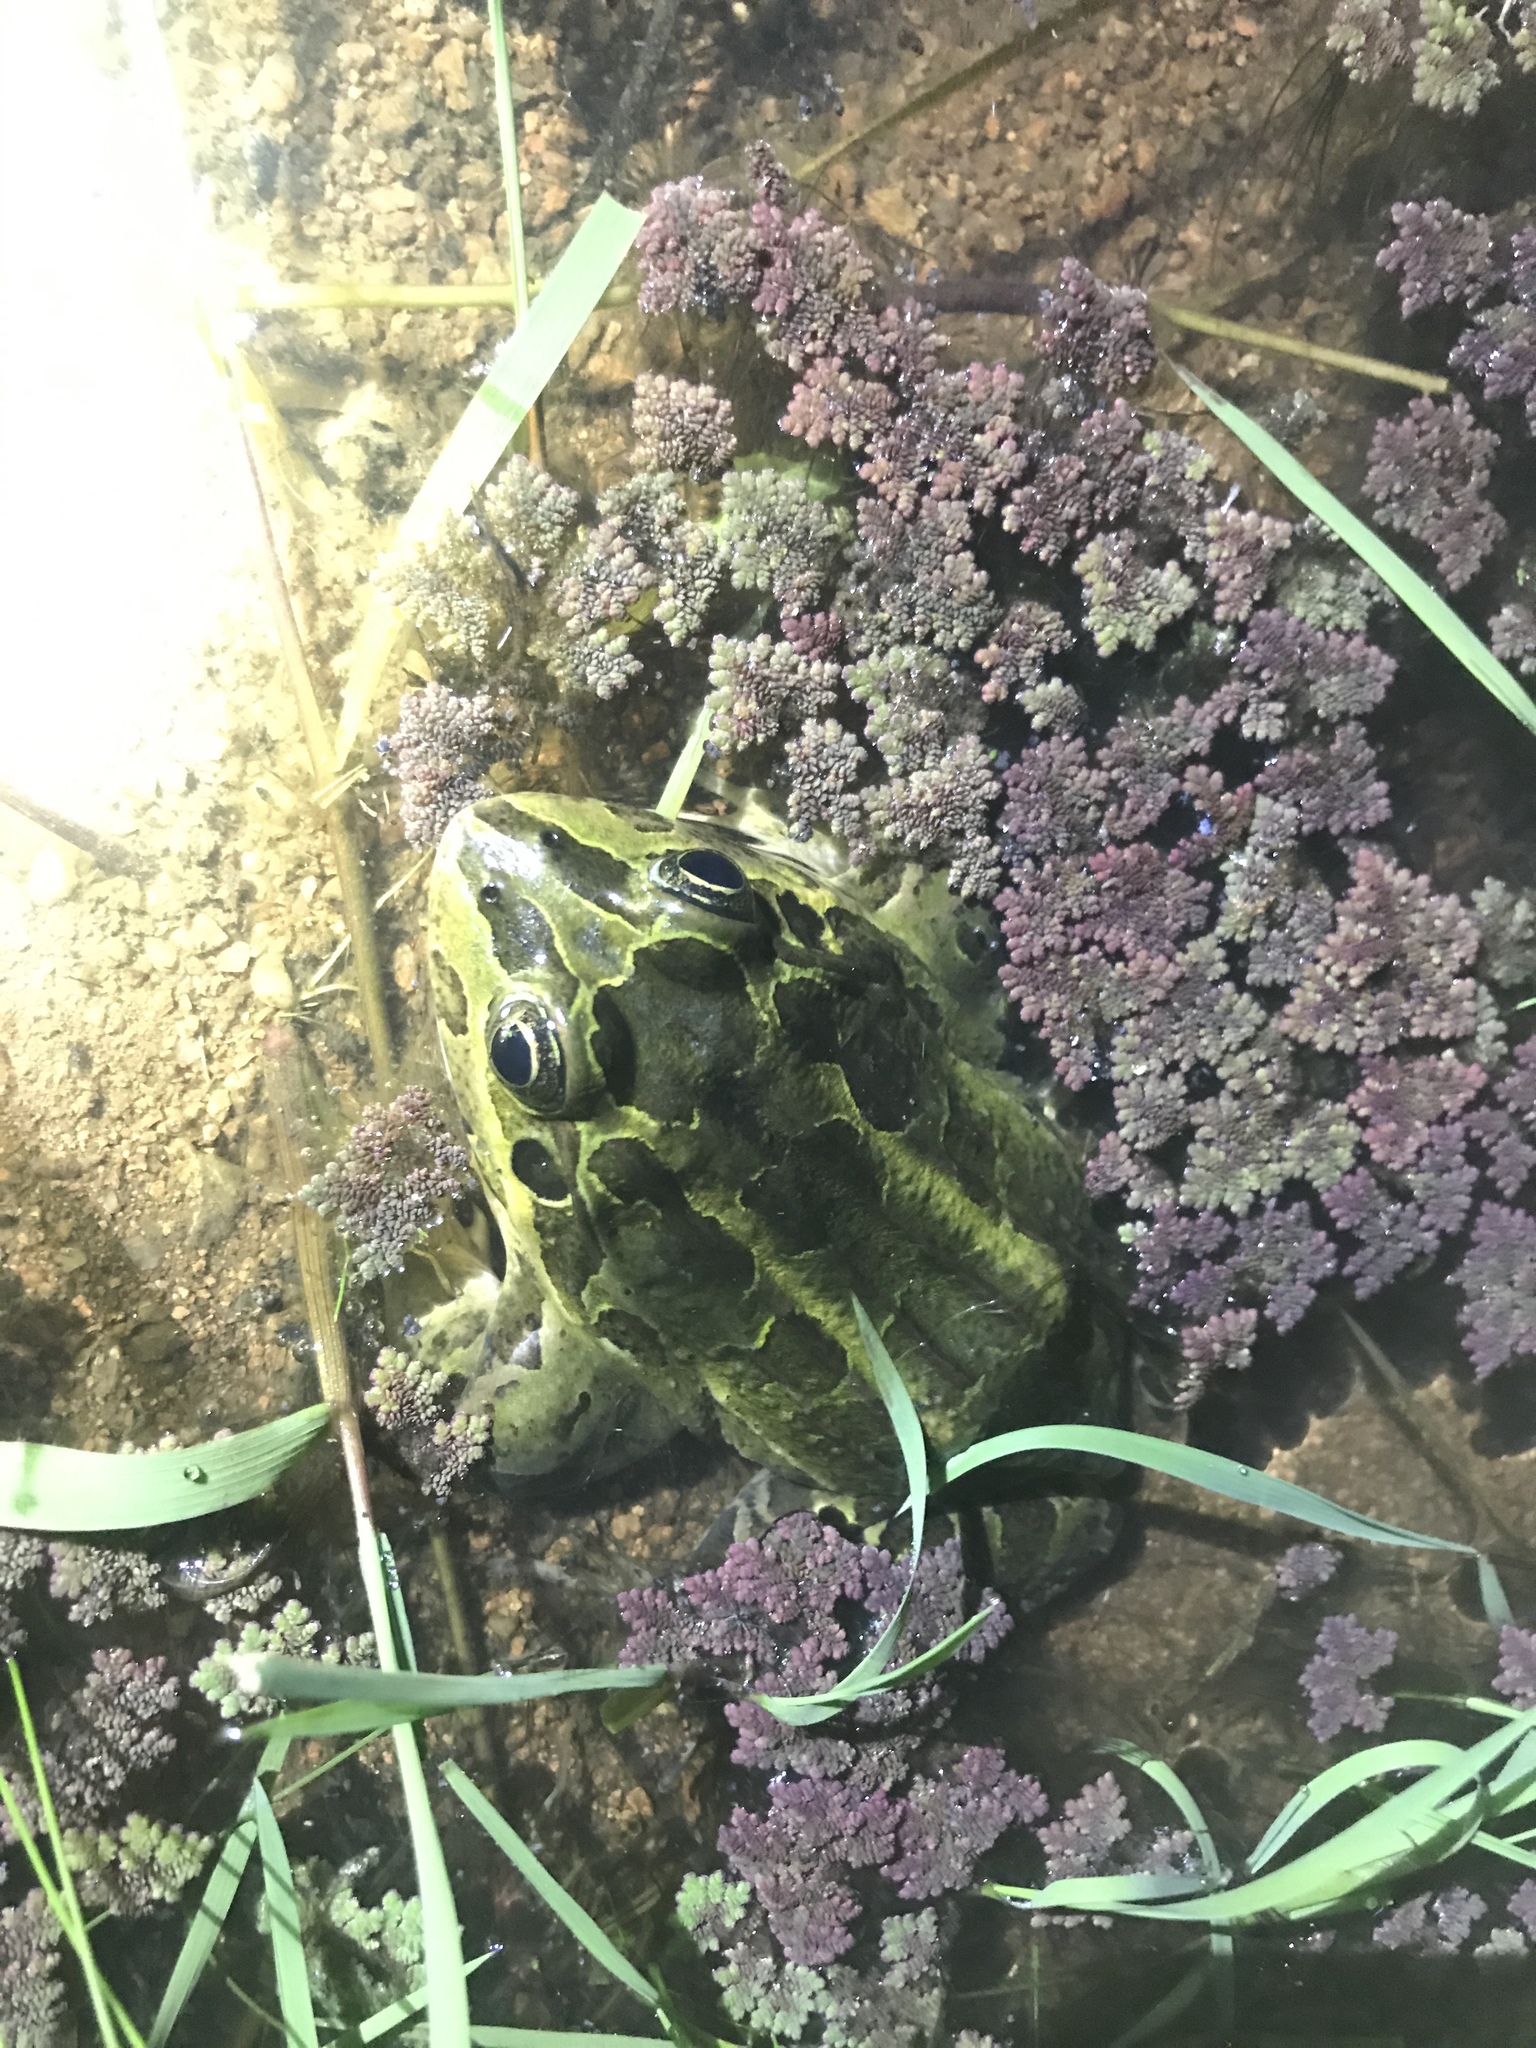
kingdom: Animalia
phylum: Chordata
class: Amphibia
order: Anura
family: Leptodactylidae
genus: Leptodactylus
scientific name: Leptodactylus luctator
